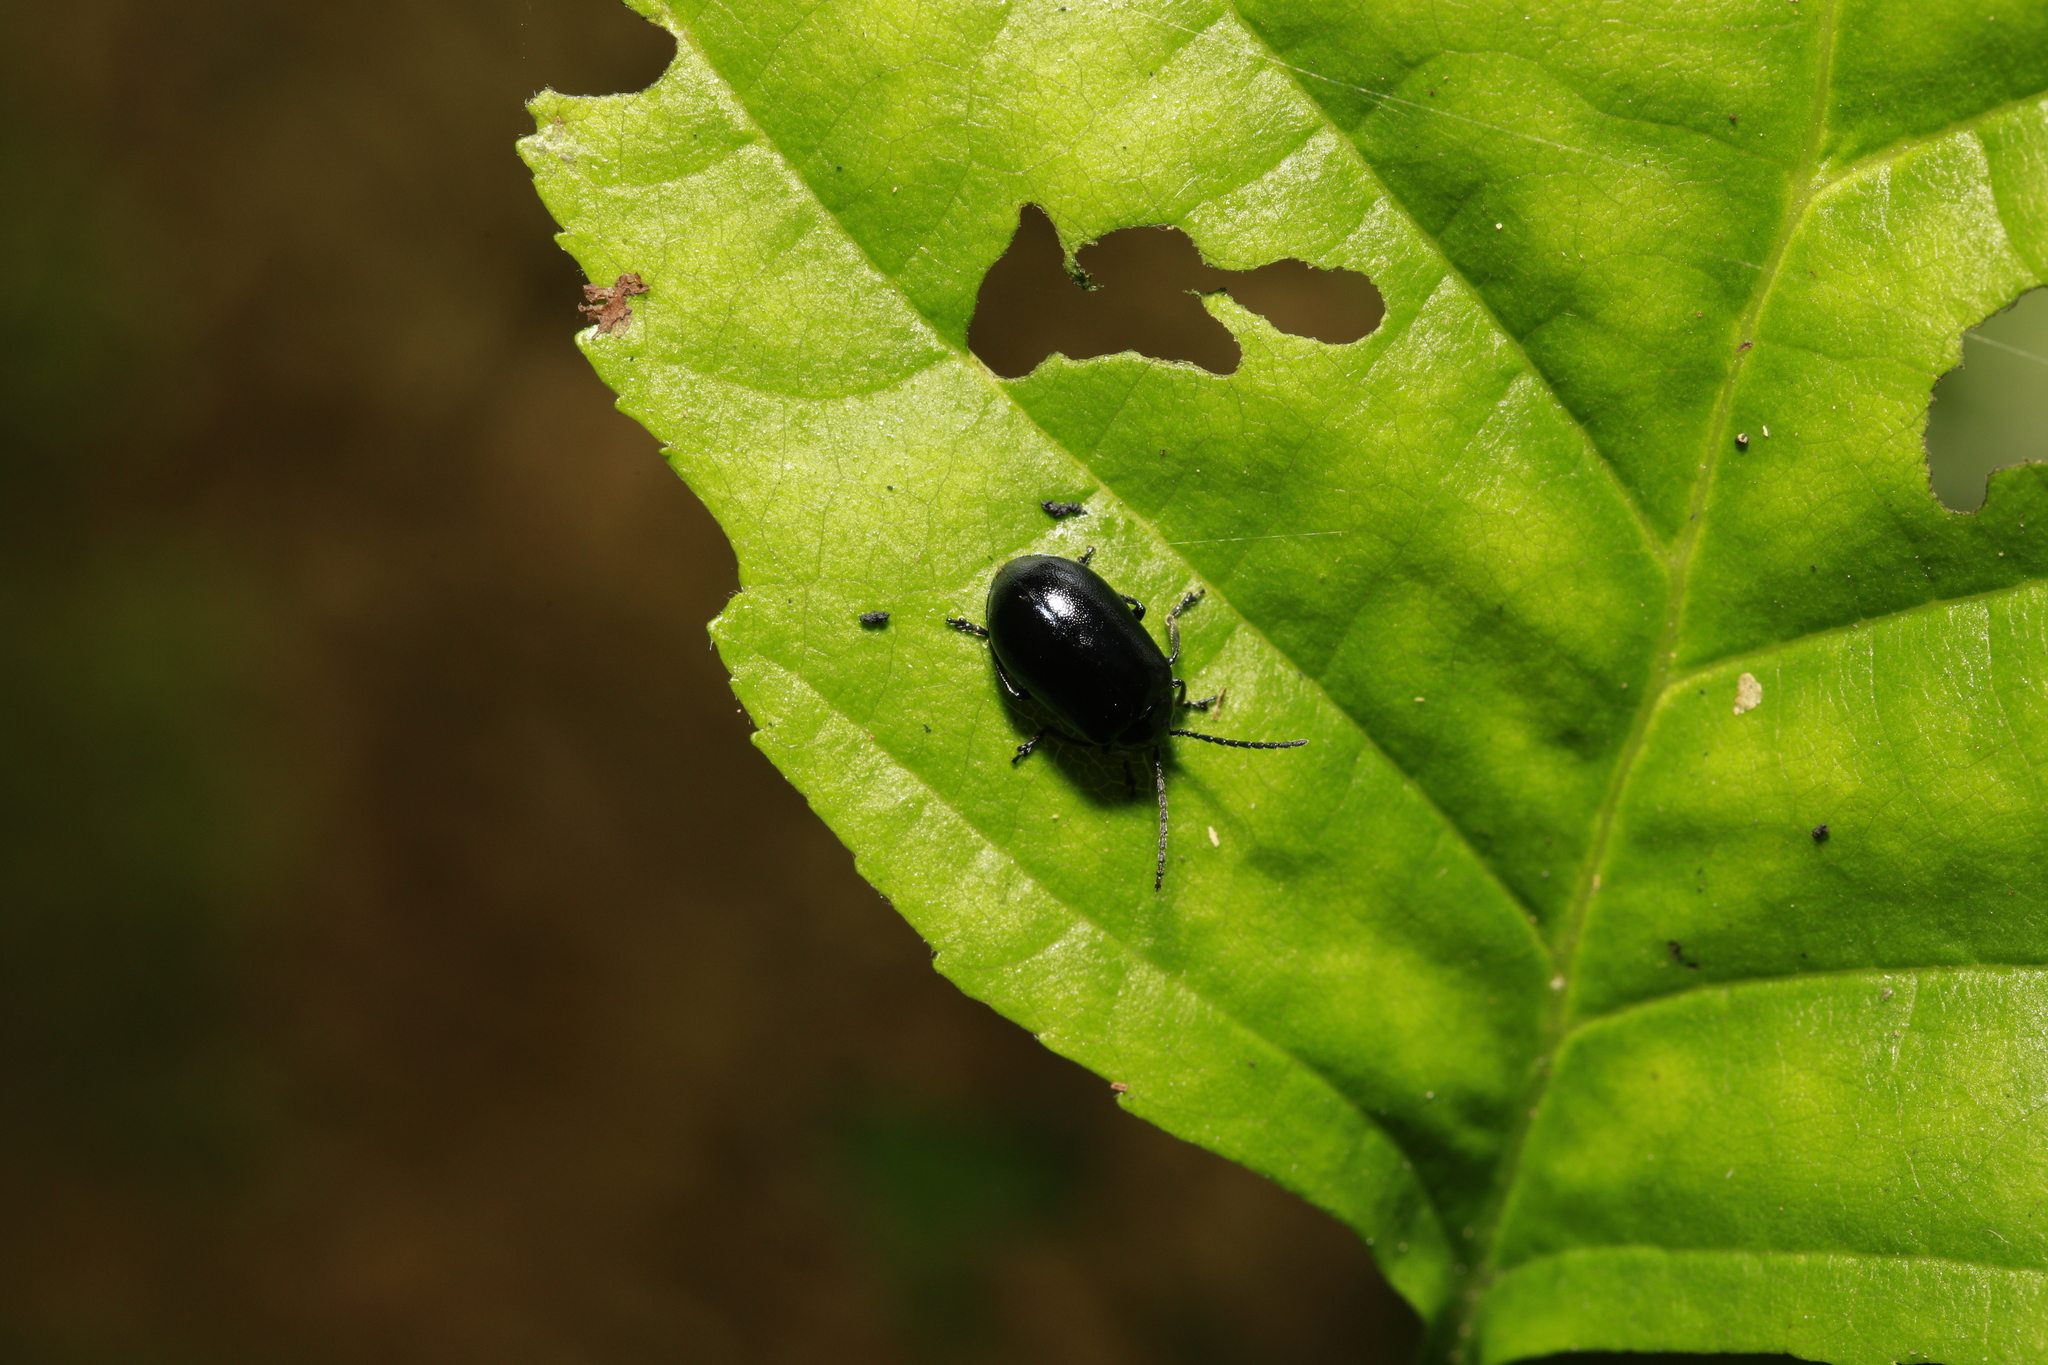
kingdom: Animalia
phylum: Arthropoda
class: Insecta
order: Coleoptera
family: Chrysomelidae
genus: Agelastica
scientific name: Agelastica alni
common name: Alder leaf beetle
